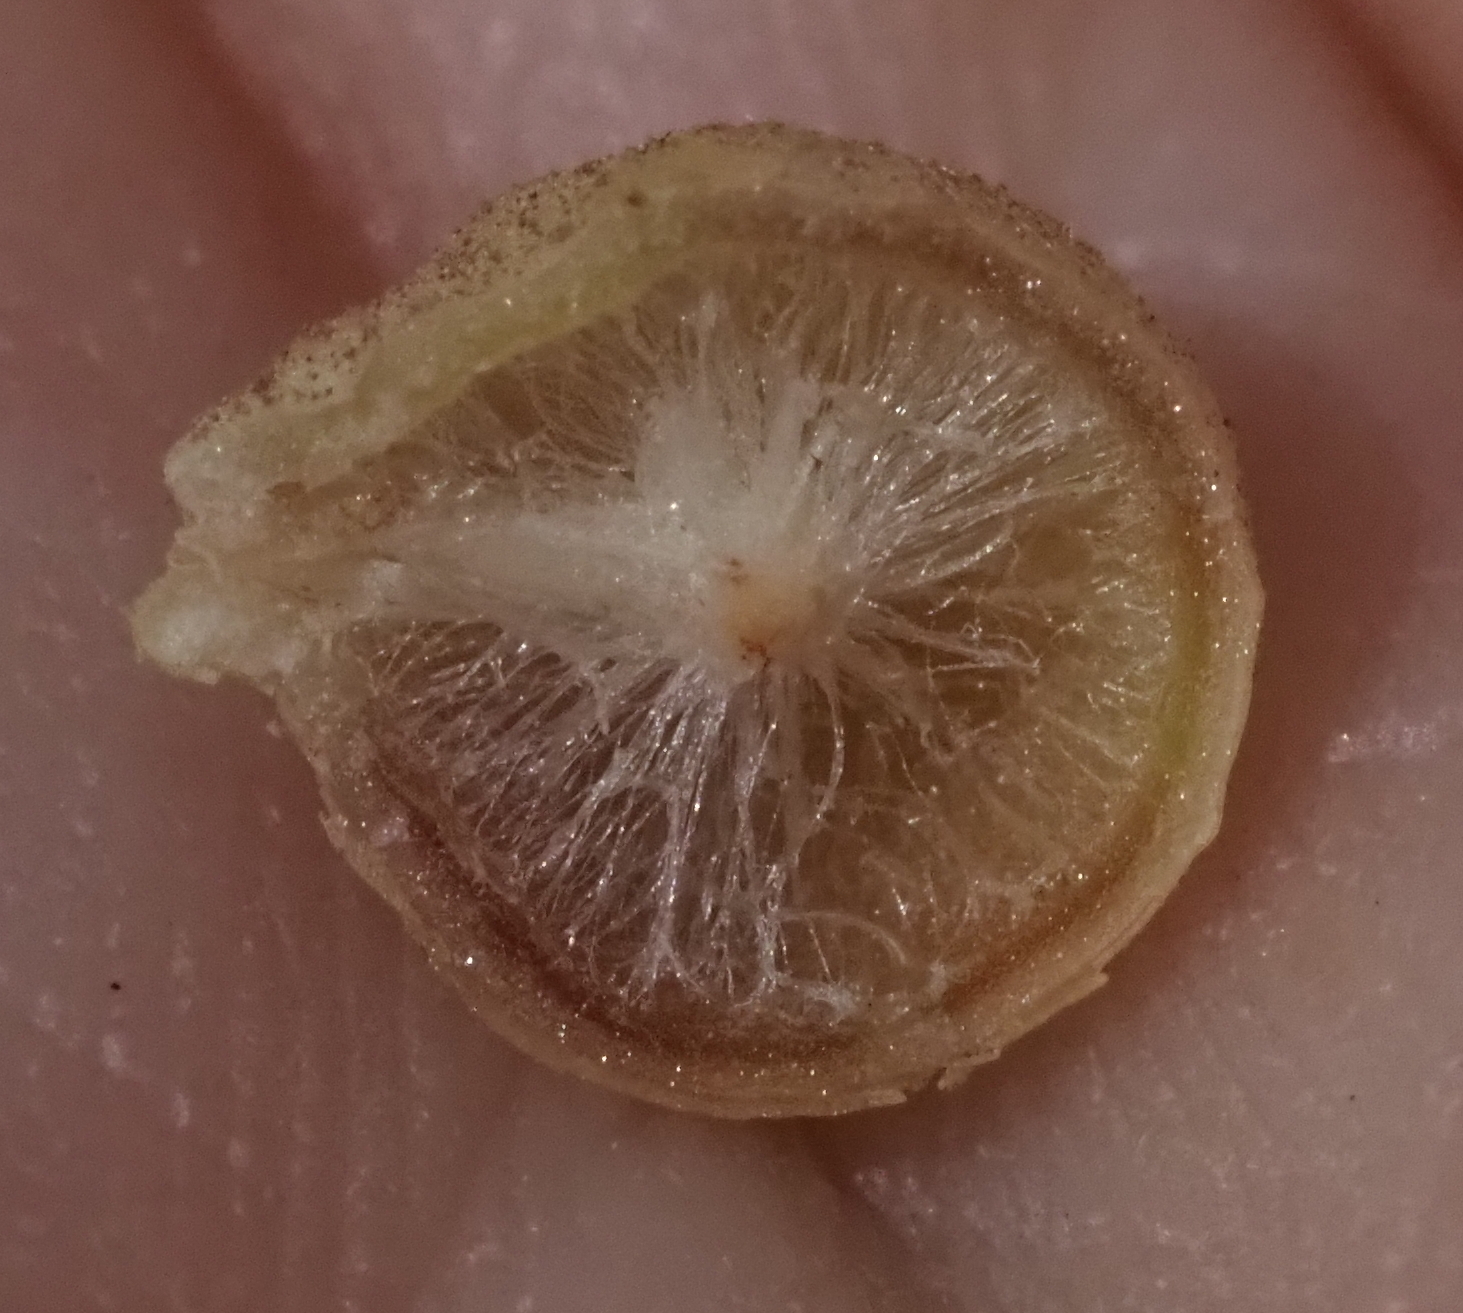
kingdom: Animalia
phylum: Arthropoda
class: Insecta
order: Hymenoptera
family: Cynipidae
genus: Andricus
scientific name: Andricus
